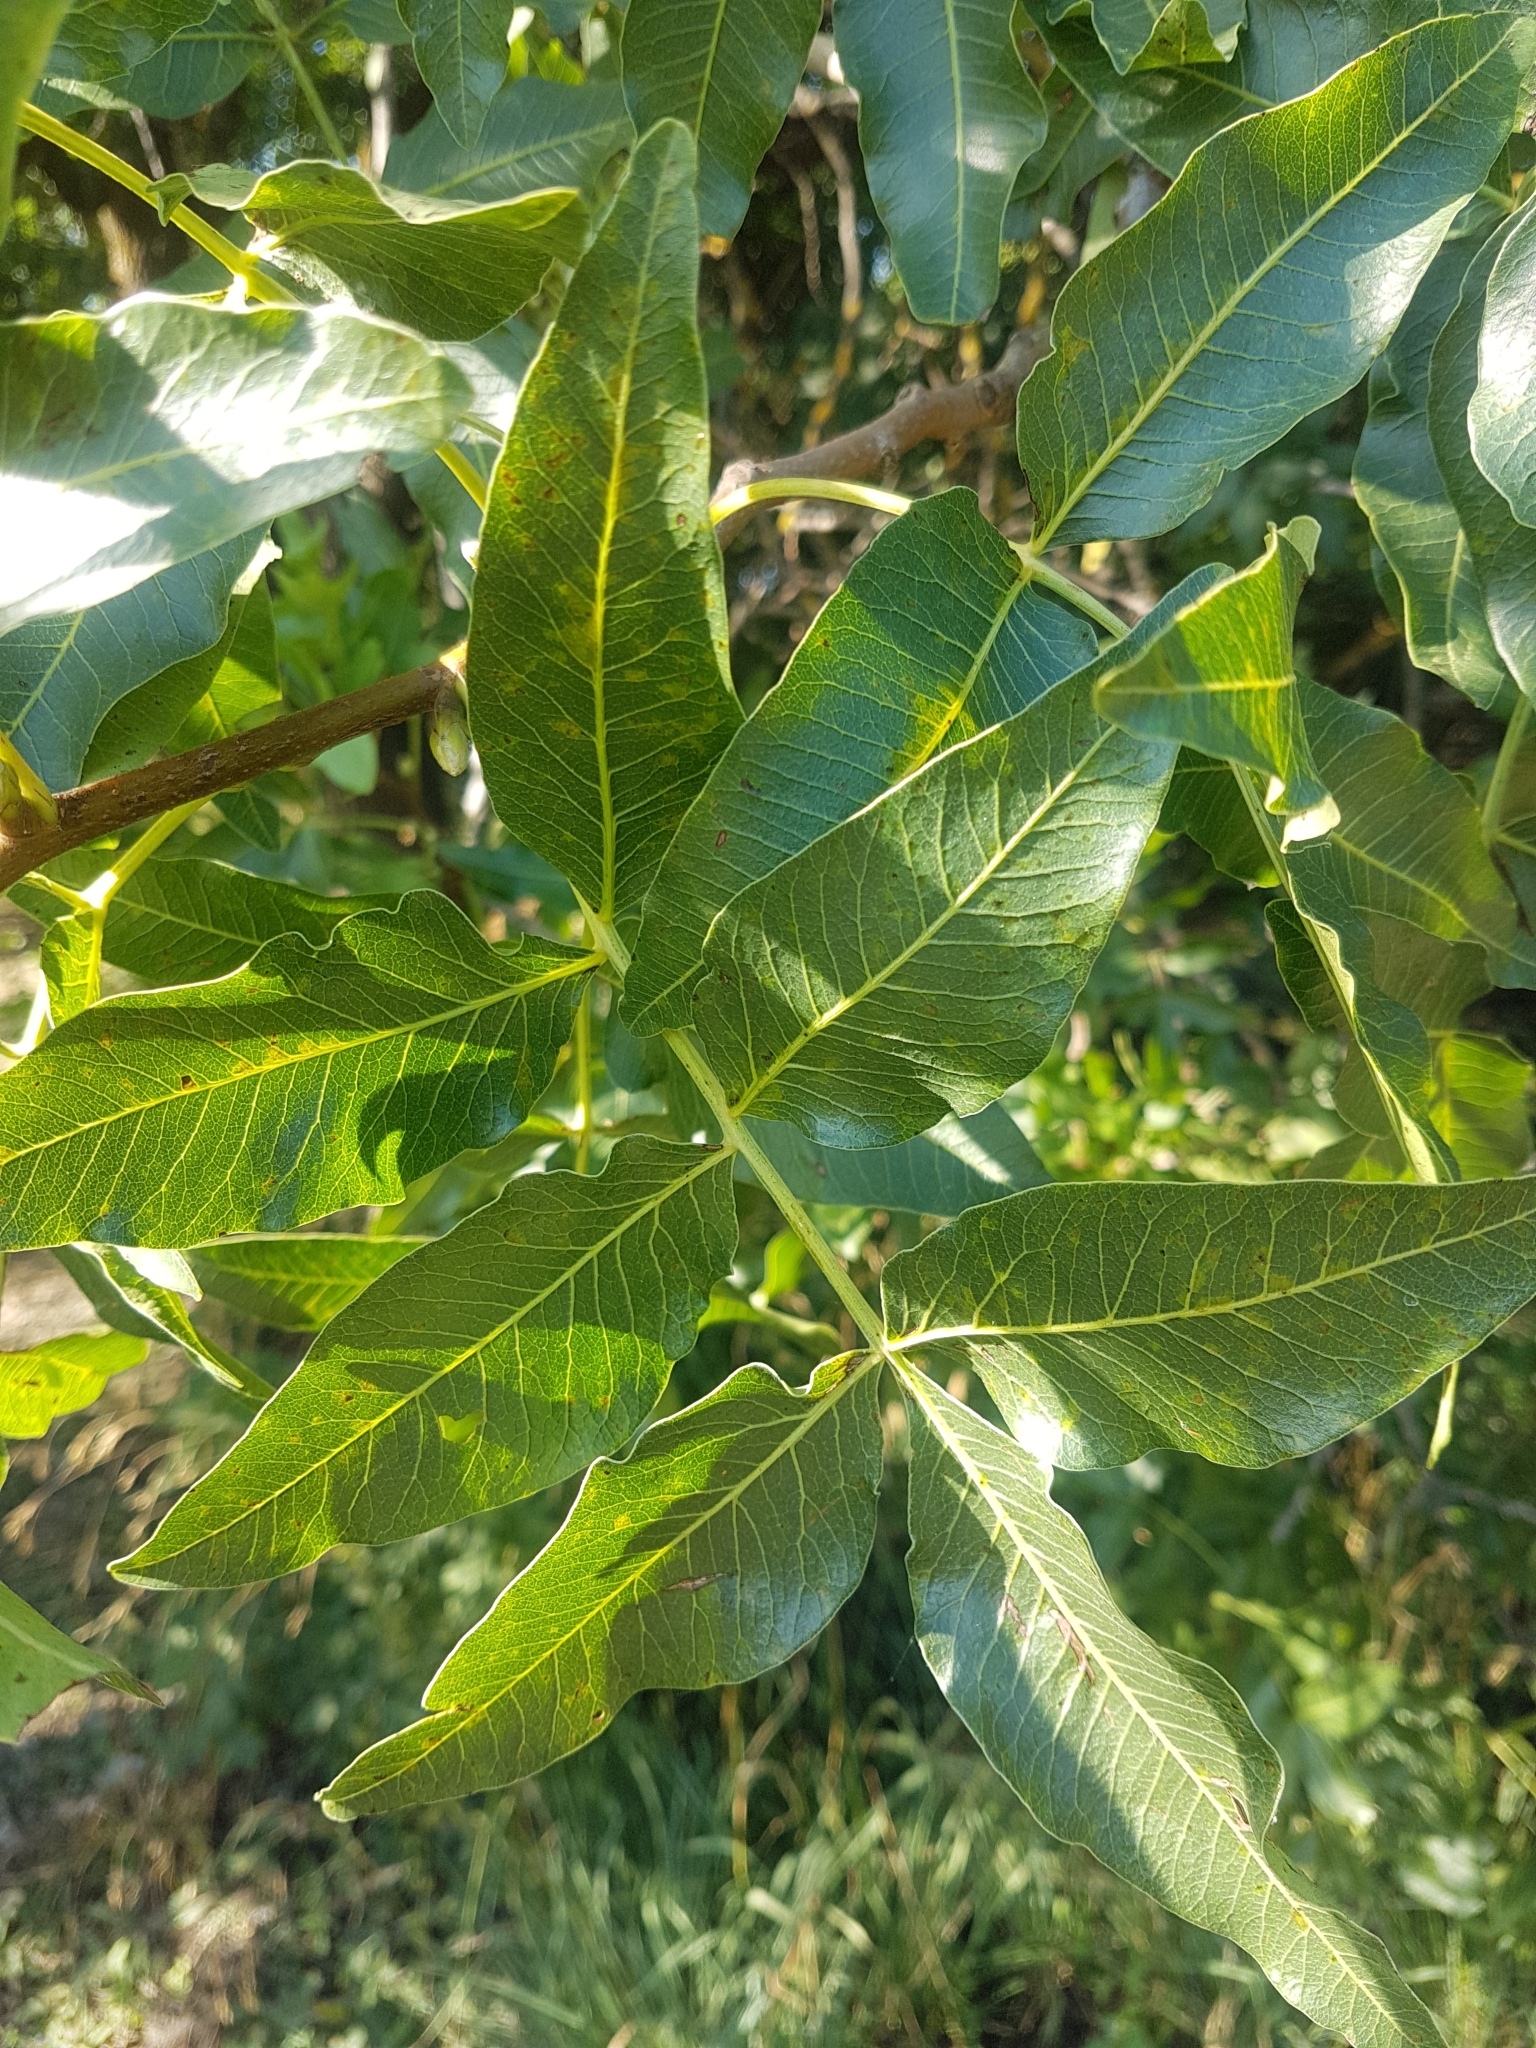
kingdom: Plantae
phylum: Tracheophyta
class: Magnoliopsida
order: Sapindales
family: Anacardiaceae
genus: Pistacia
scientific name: Pistacia atlantica
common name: Mt. atlas mastic tree
